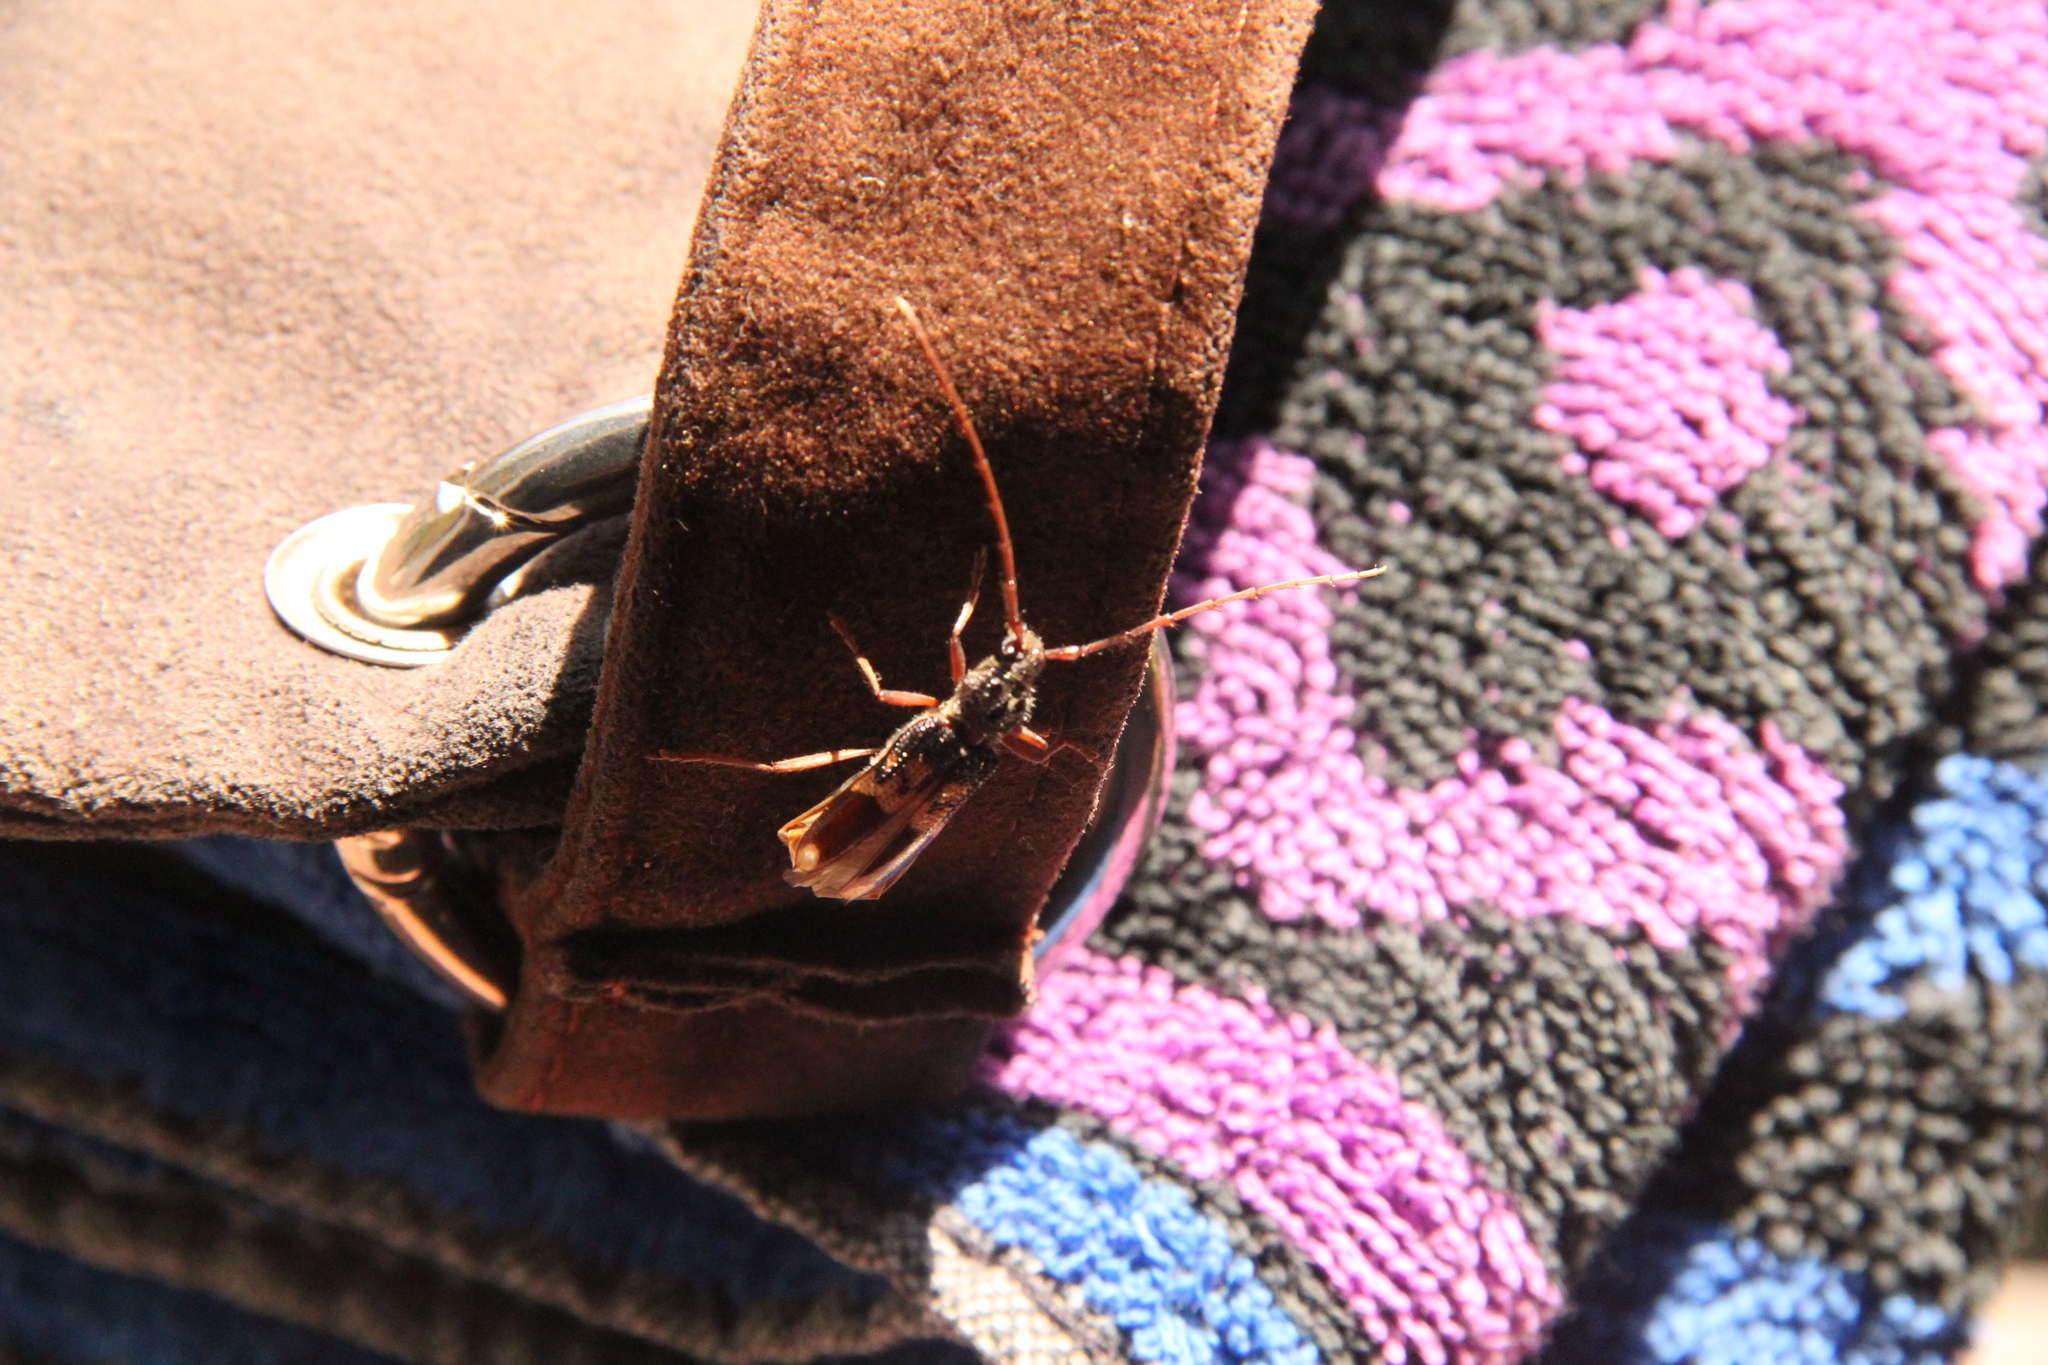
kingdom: Animalia
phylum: Arthropoda
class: Insecta
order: Coleoptera
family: Cerambycidae
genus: Phoracantha
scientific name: Phoracantha semipunctata
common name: Eucalyptus longhorn borer
